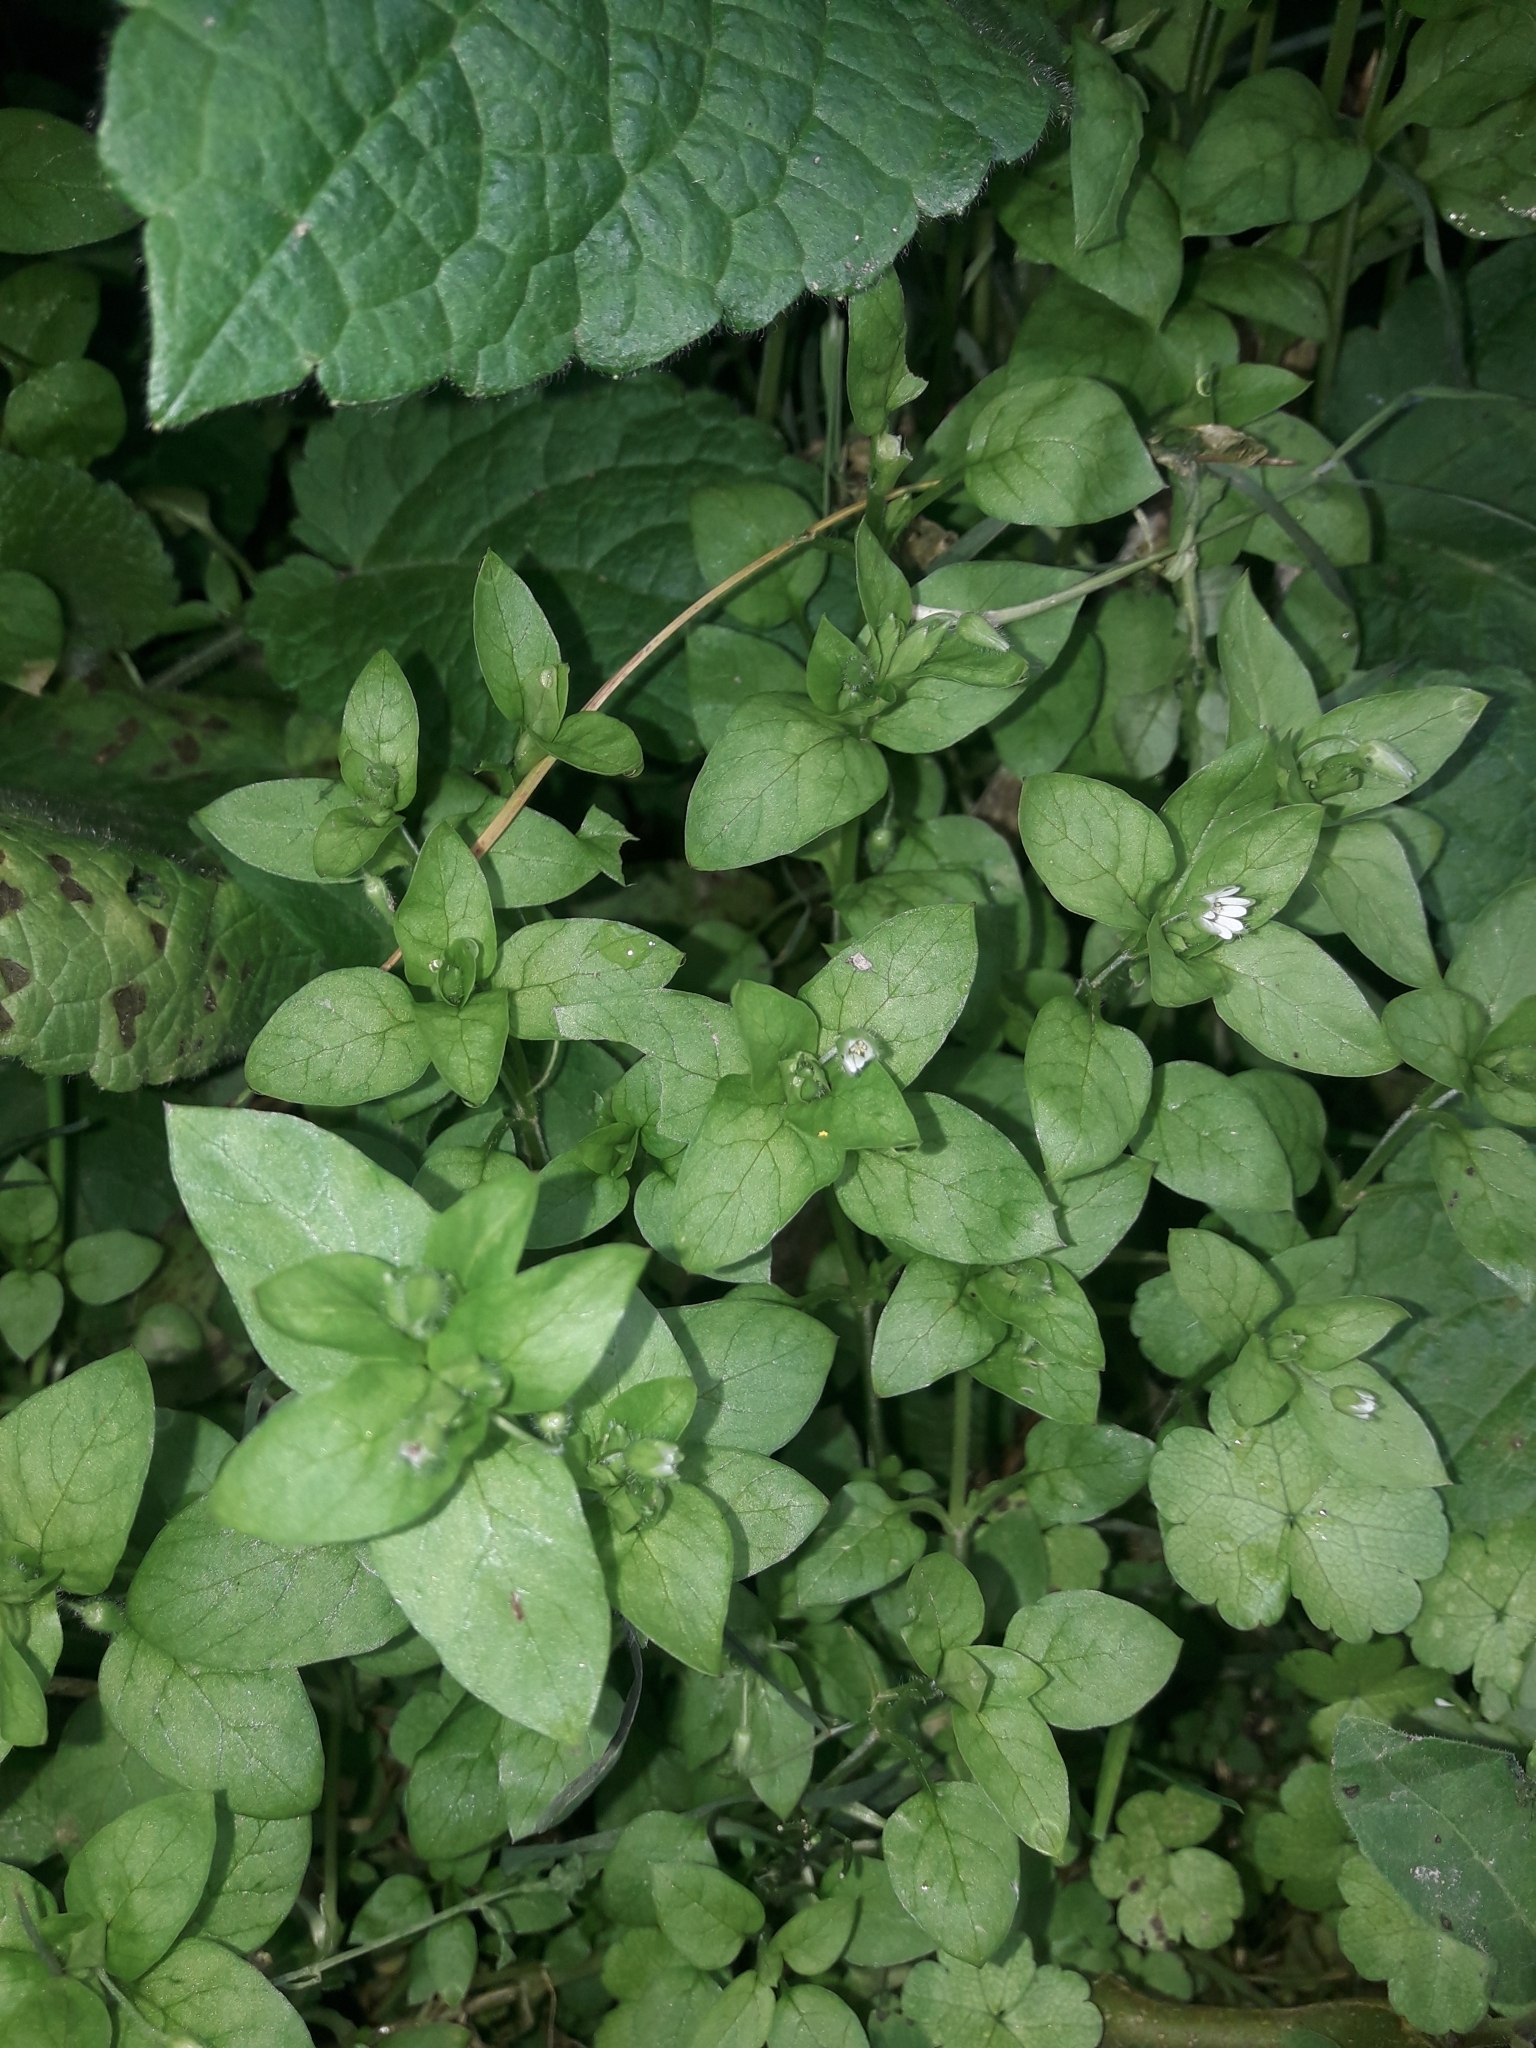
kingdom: Plantae
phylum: Tracheophyta
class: Magnoliopsida
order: Caryophyllales
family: Caryophyllaceae
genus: Stellaria
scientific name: Stellaria media
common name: Common chickweed
